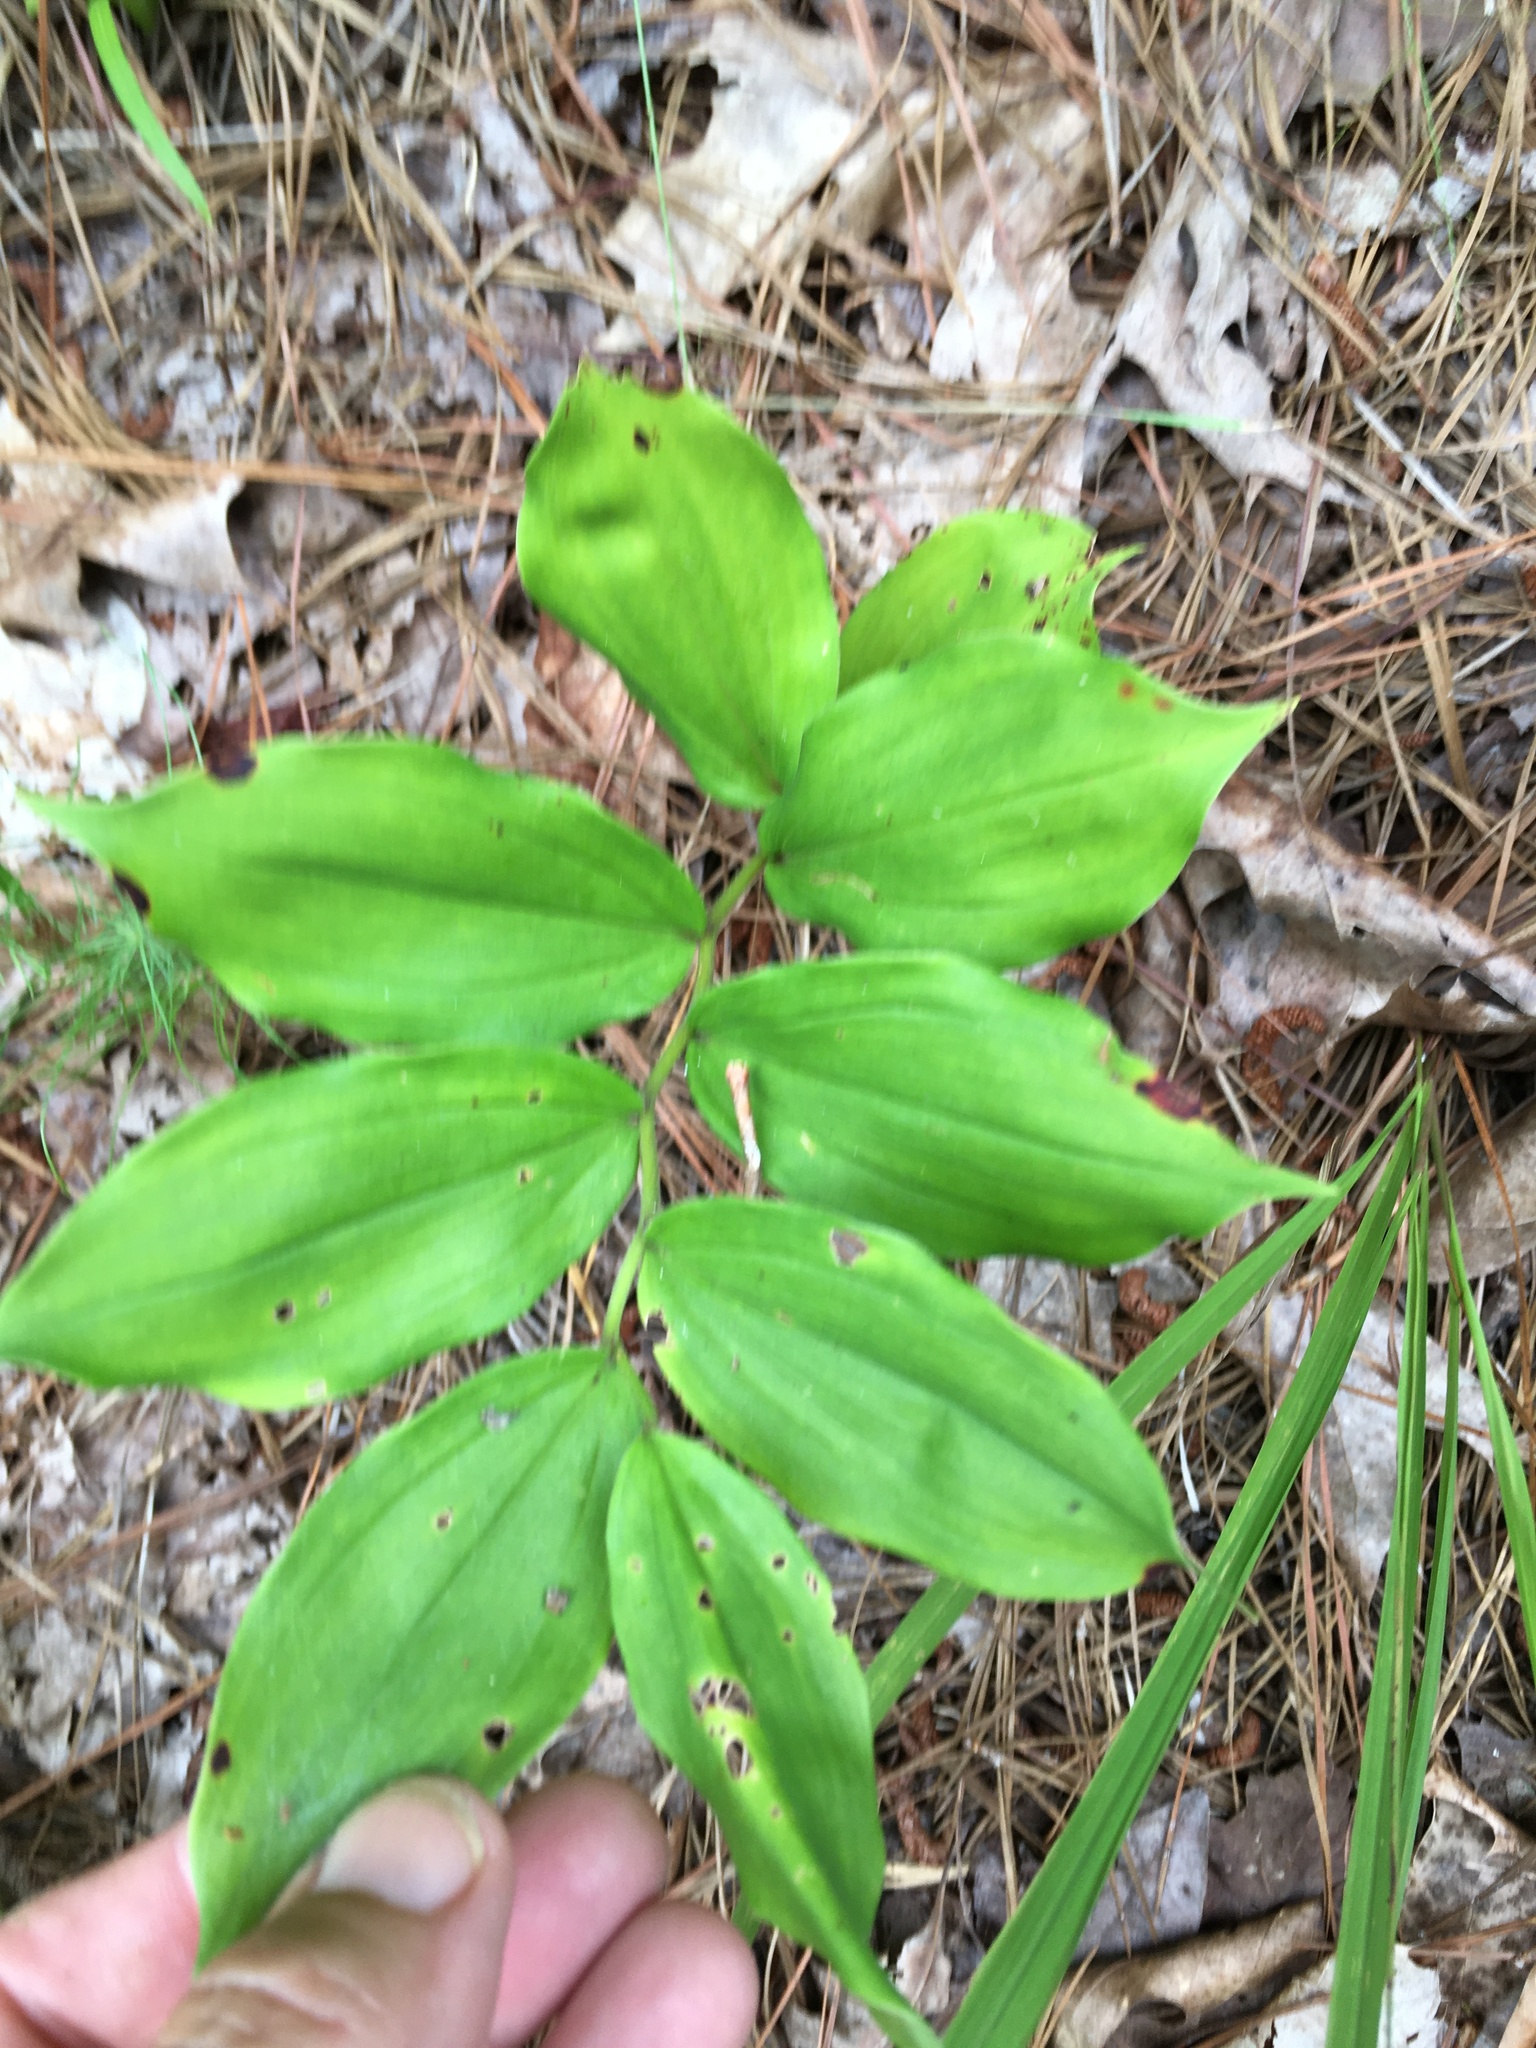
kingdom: Plantae
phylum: Tracheophyta
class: Liliopsida
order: Asparagales
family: Asparagaceae
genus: Maianthemum
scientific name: Maianthemum racemosum
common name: False spikenard
